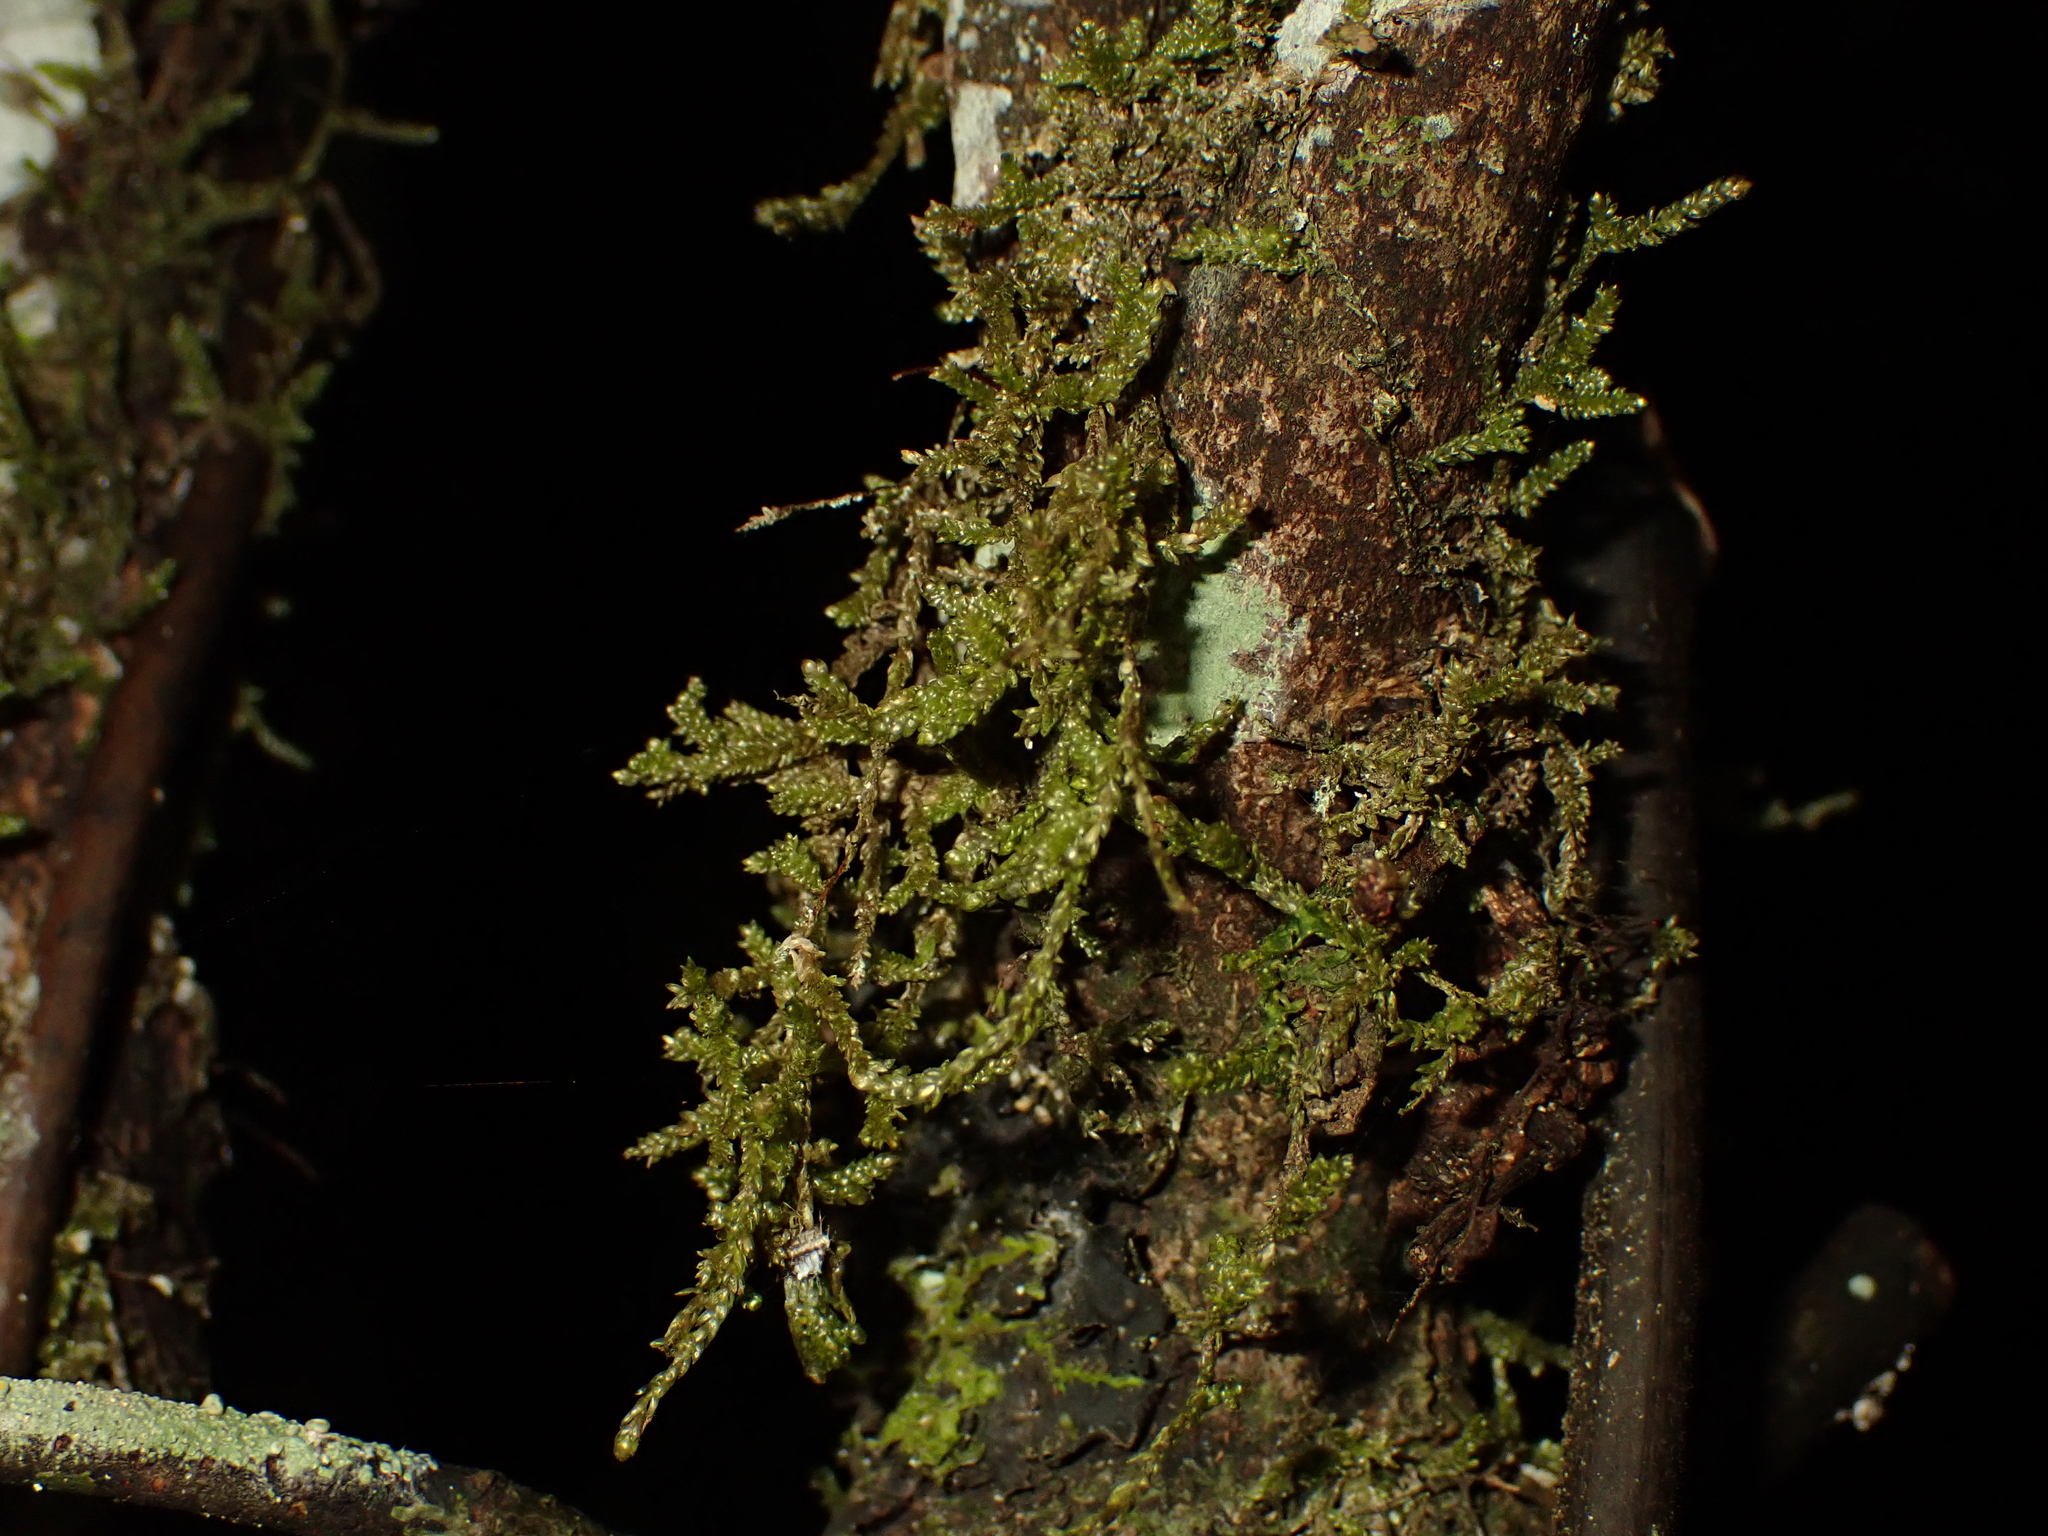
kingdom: Plantae
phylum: Bryophyta
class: Bryopsida
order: Hypnales
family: Lembophyllaceae
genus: Weymouthia
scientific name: Weymouthia
